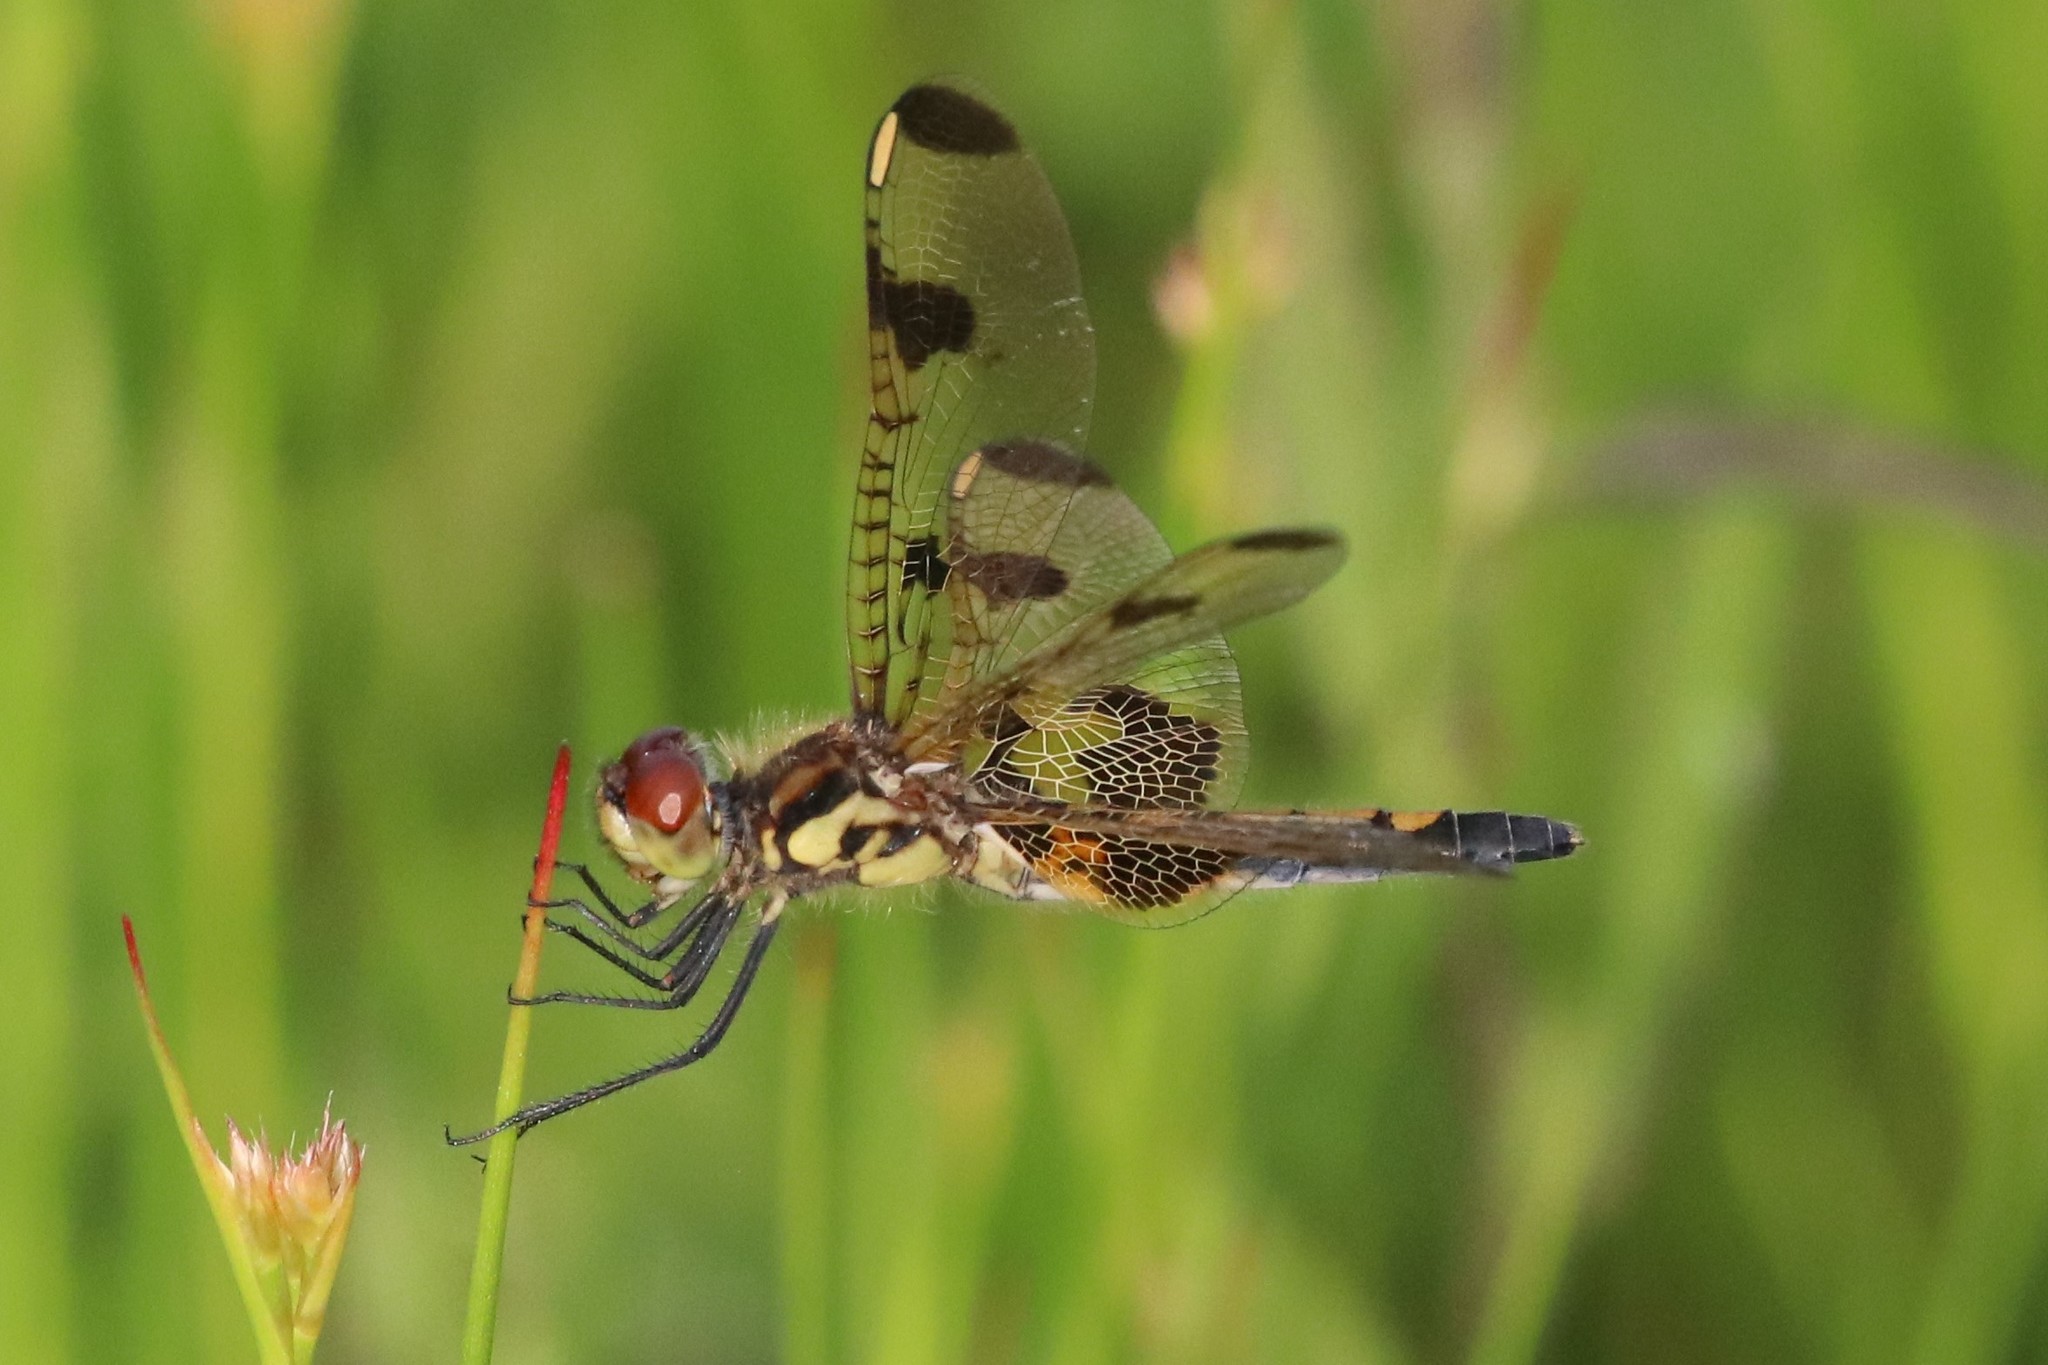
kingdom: Animalia
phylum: Arthropoda
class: Insecta
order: Odonata
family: Libellulidae
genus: Celithemis
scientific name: Celithemis elisa
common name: Calico pennant
